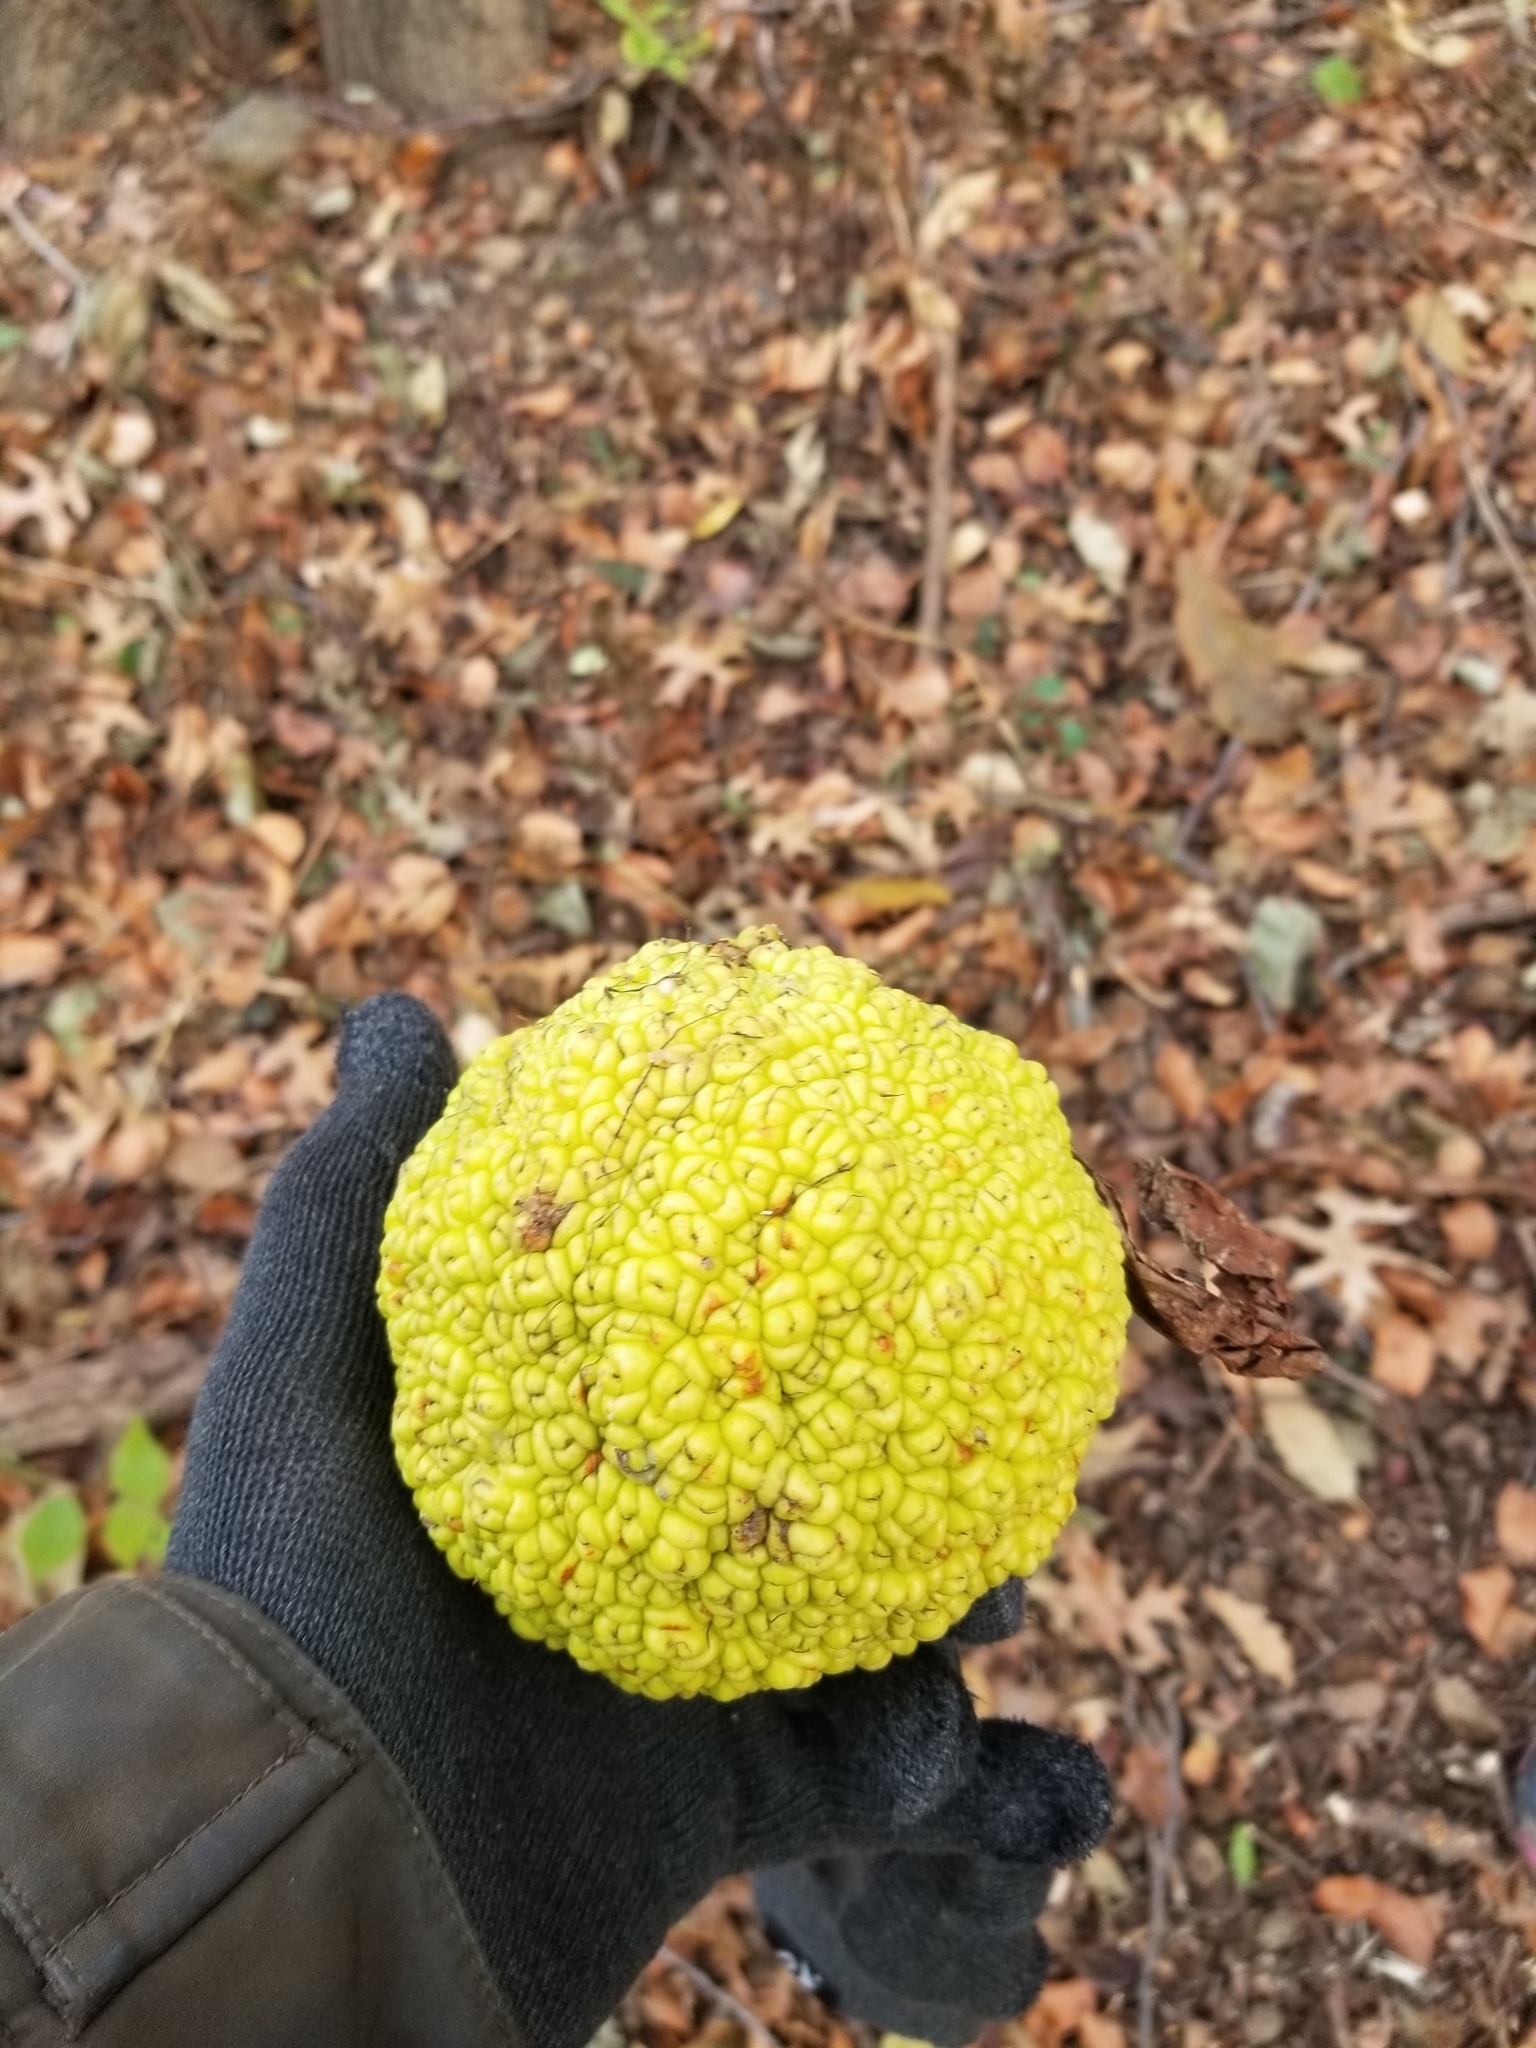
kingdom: Plantae
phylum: Tracheophyta
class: Magnoliopsida
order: Rosales
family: Moraceae
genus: Maclura
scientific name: Maclura pomifera
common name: Osage-orange
